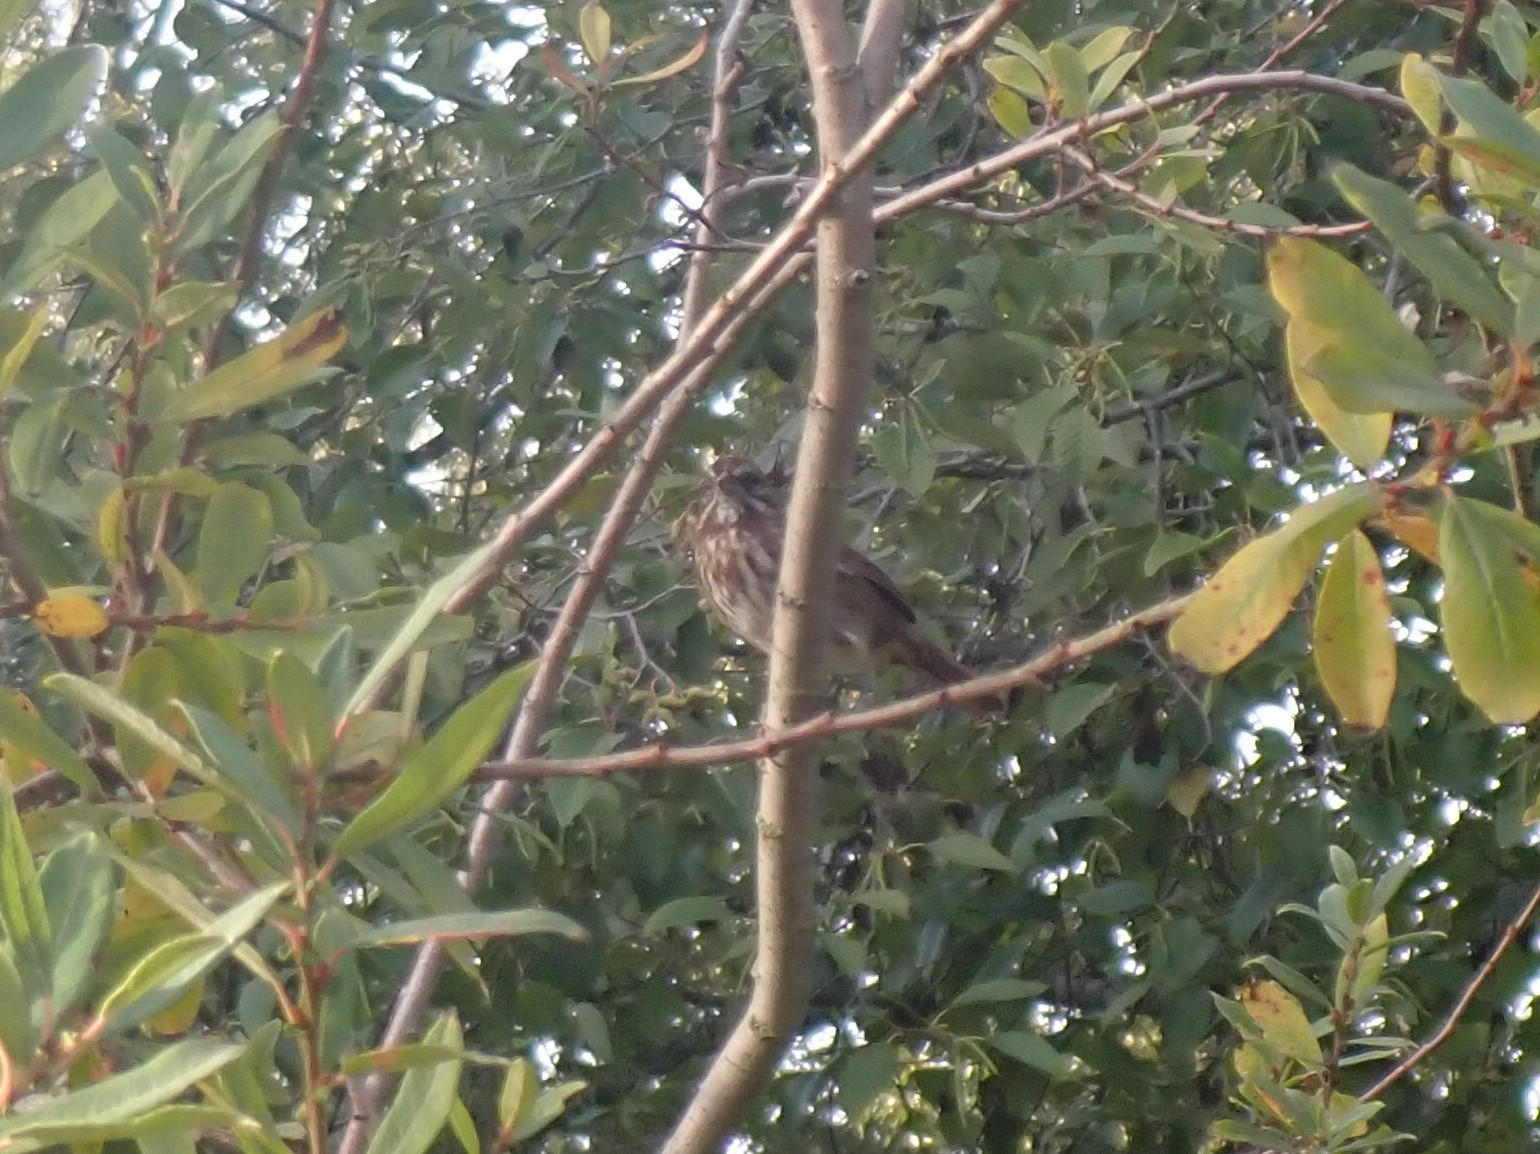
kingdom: Animalia
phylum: Chordata
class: Aves
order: Passeriformes
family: Passerellidae
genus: Melospiza
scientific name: Melospiza melodia
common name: Song sparrow
